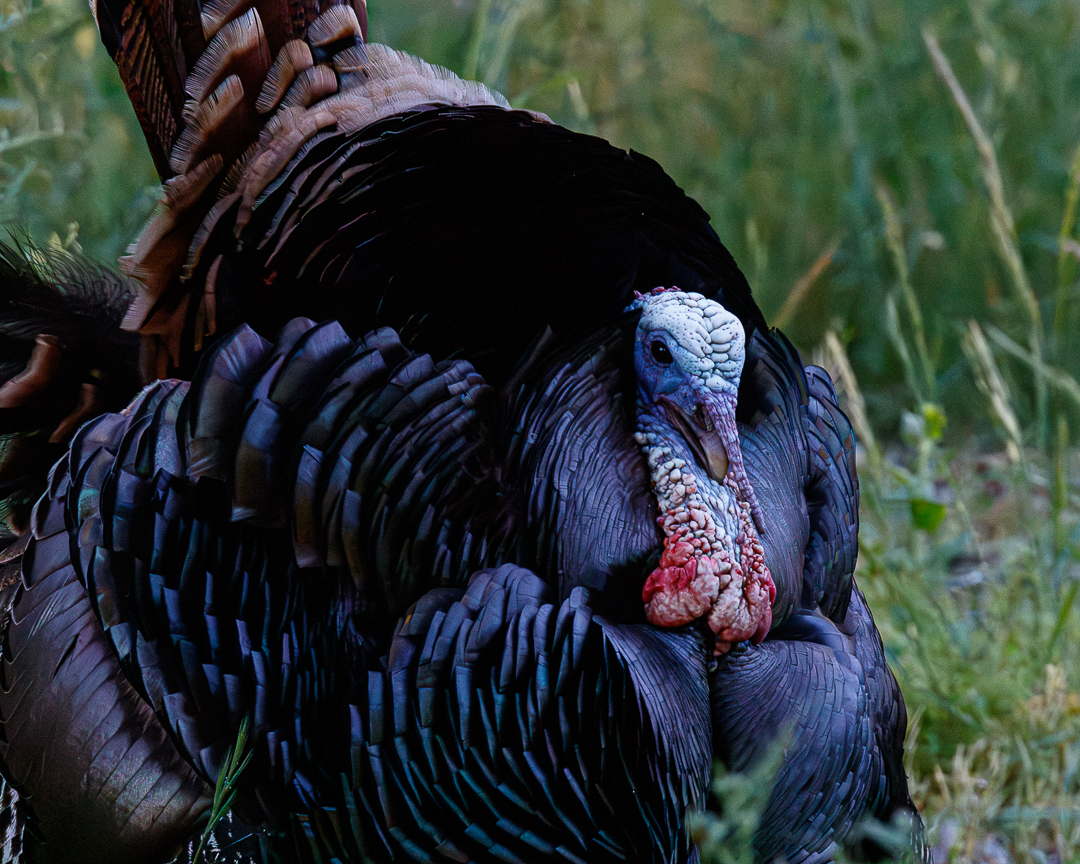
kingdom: Animalia
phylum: Chordata
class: Aves
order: Galliformes
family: Phasianidae
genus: Meleagris
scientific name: Meleagris gallopavo
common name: Wild turkey
